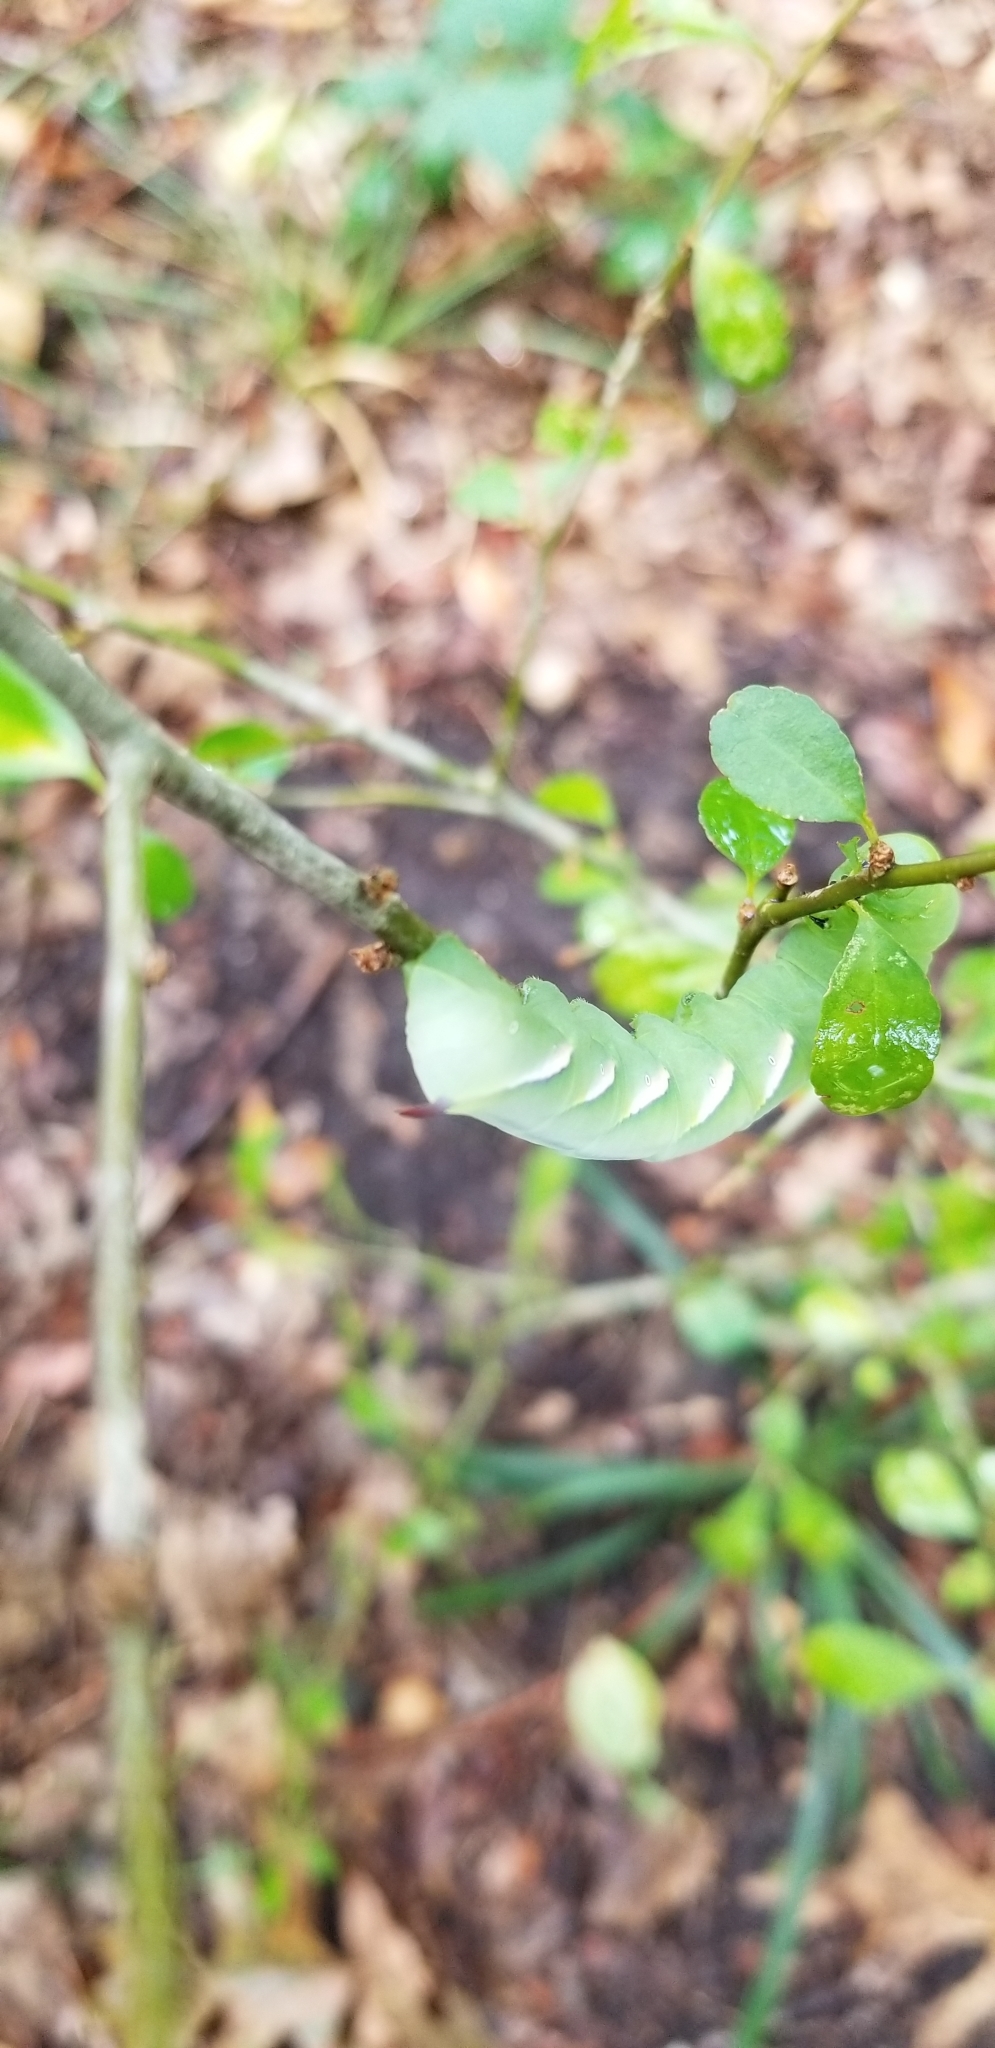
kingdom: Animalia
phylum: Arthropoda
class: Insecta
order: Lepidoptera
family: Sphingidae
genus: Dolba
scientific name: Dolba hyloeus
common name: Pawpaw sphinx
